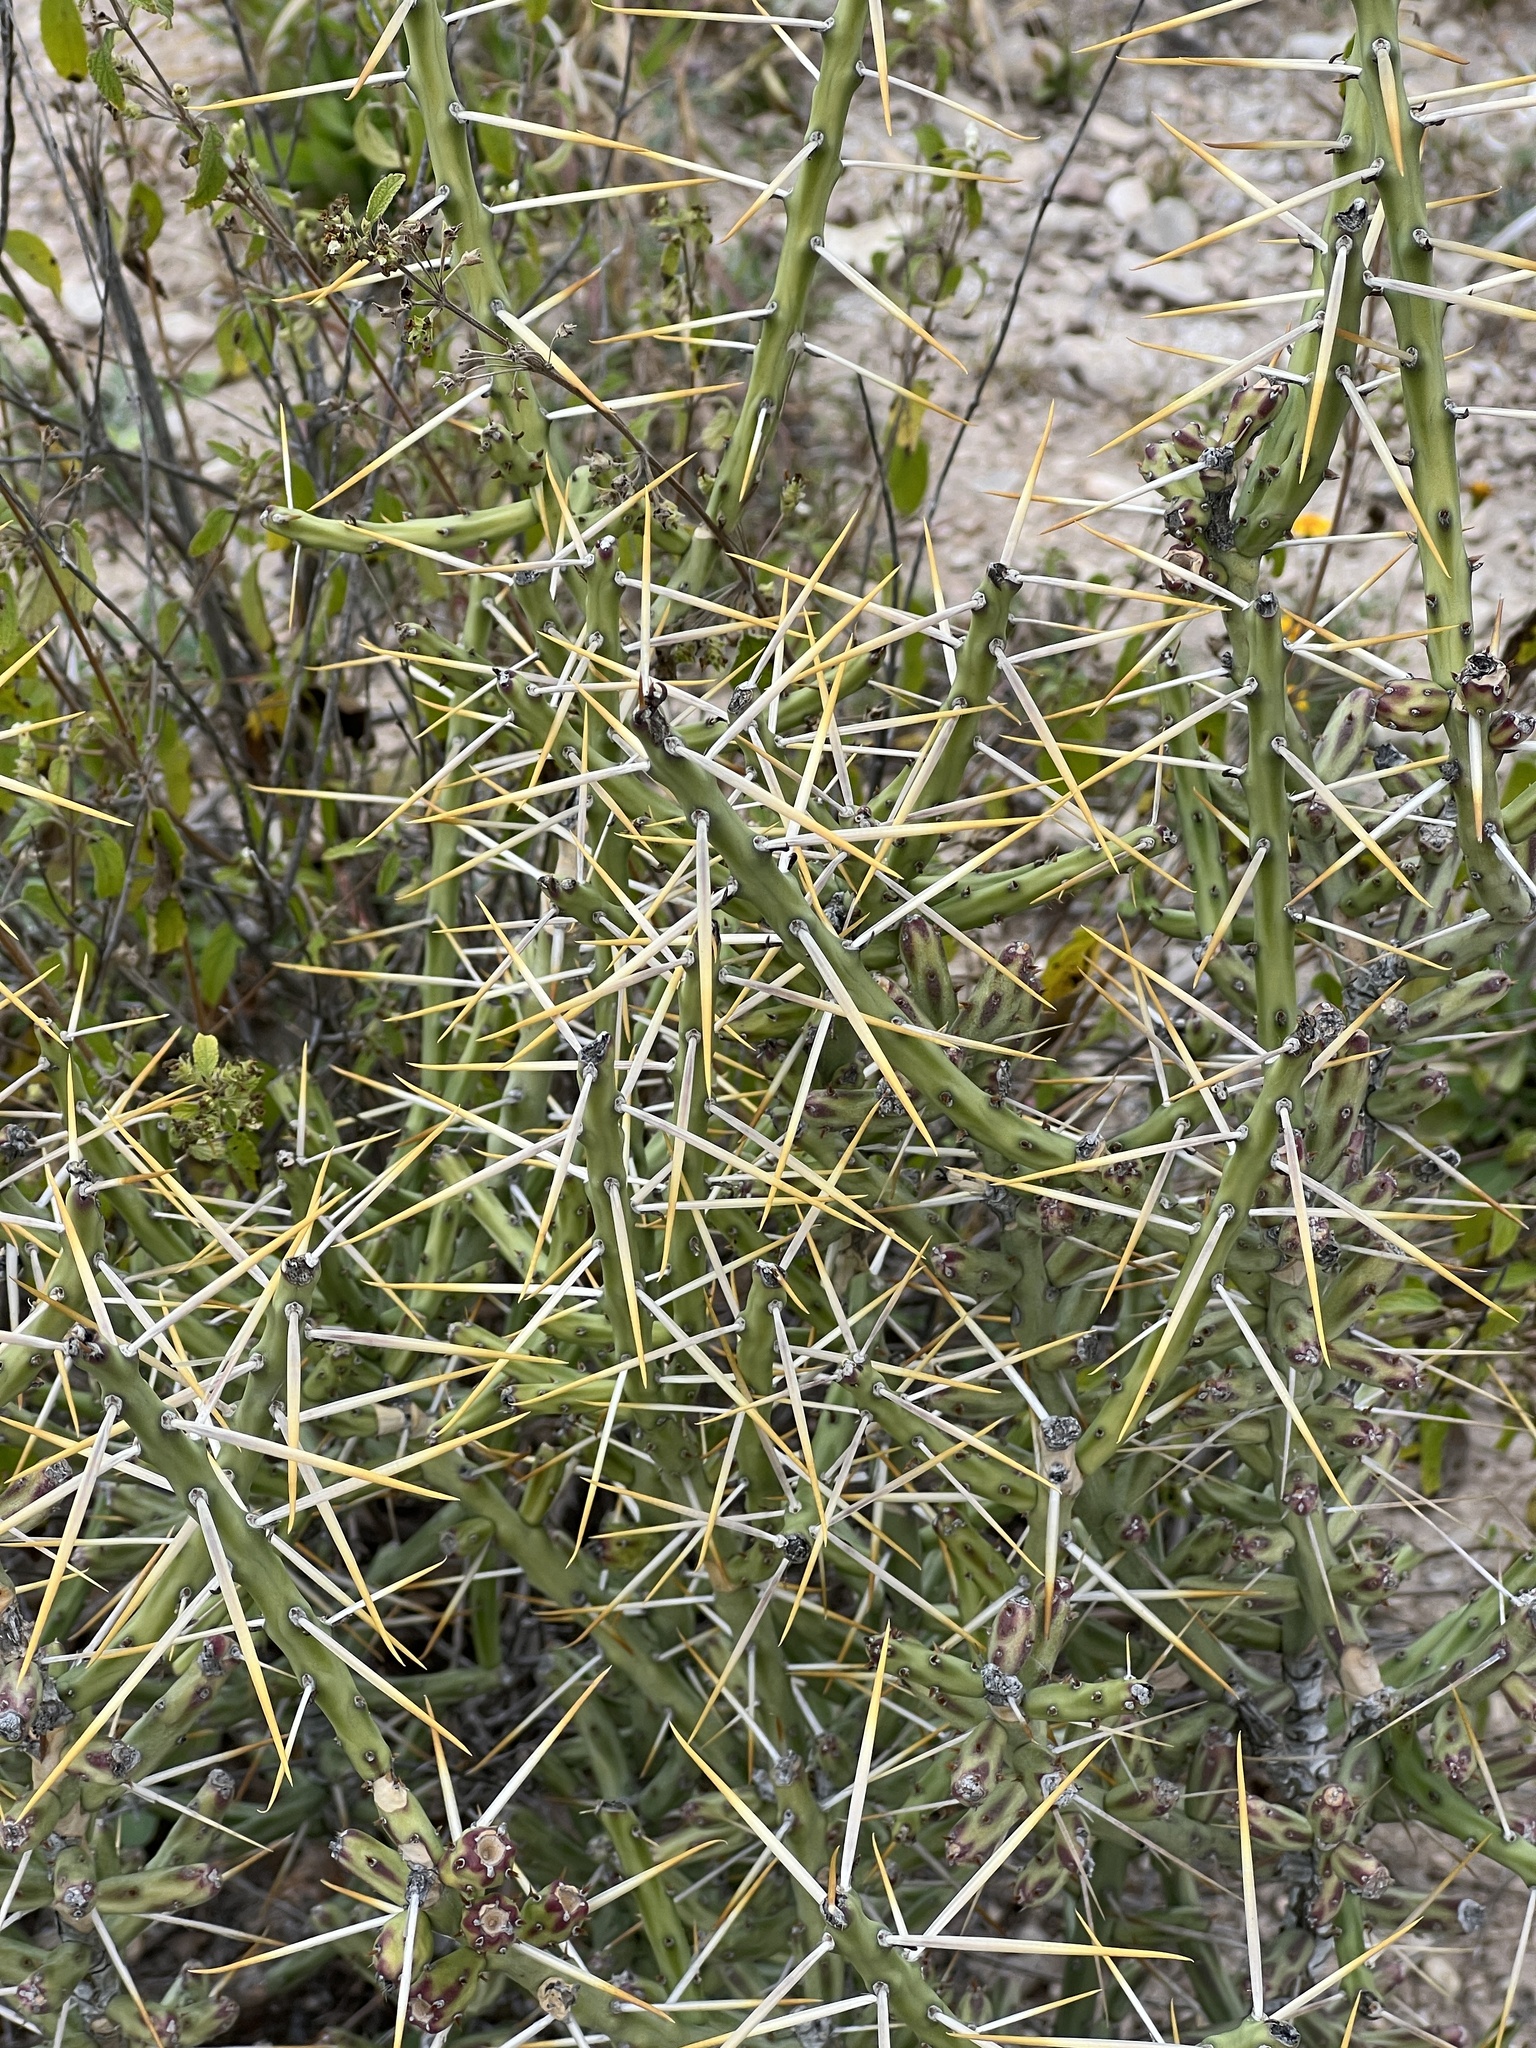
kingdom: Plantae
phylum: Tracheophyta
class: Magnoliopsida
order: Caryophyllales
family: Cactaceae
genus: Cylindropuntia
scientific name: Cylindropuntia leptocaulis
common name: Christmas cactus
